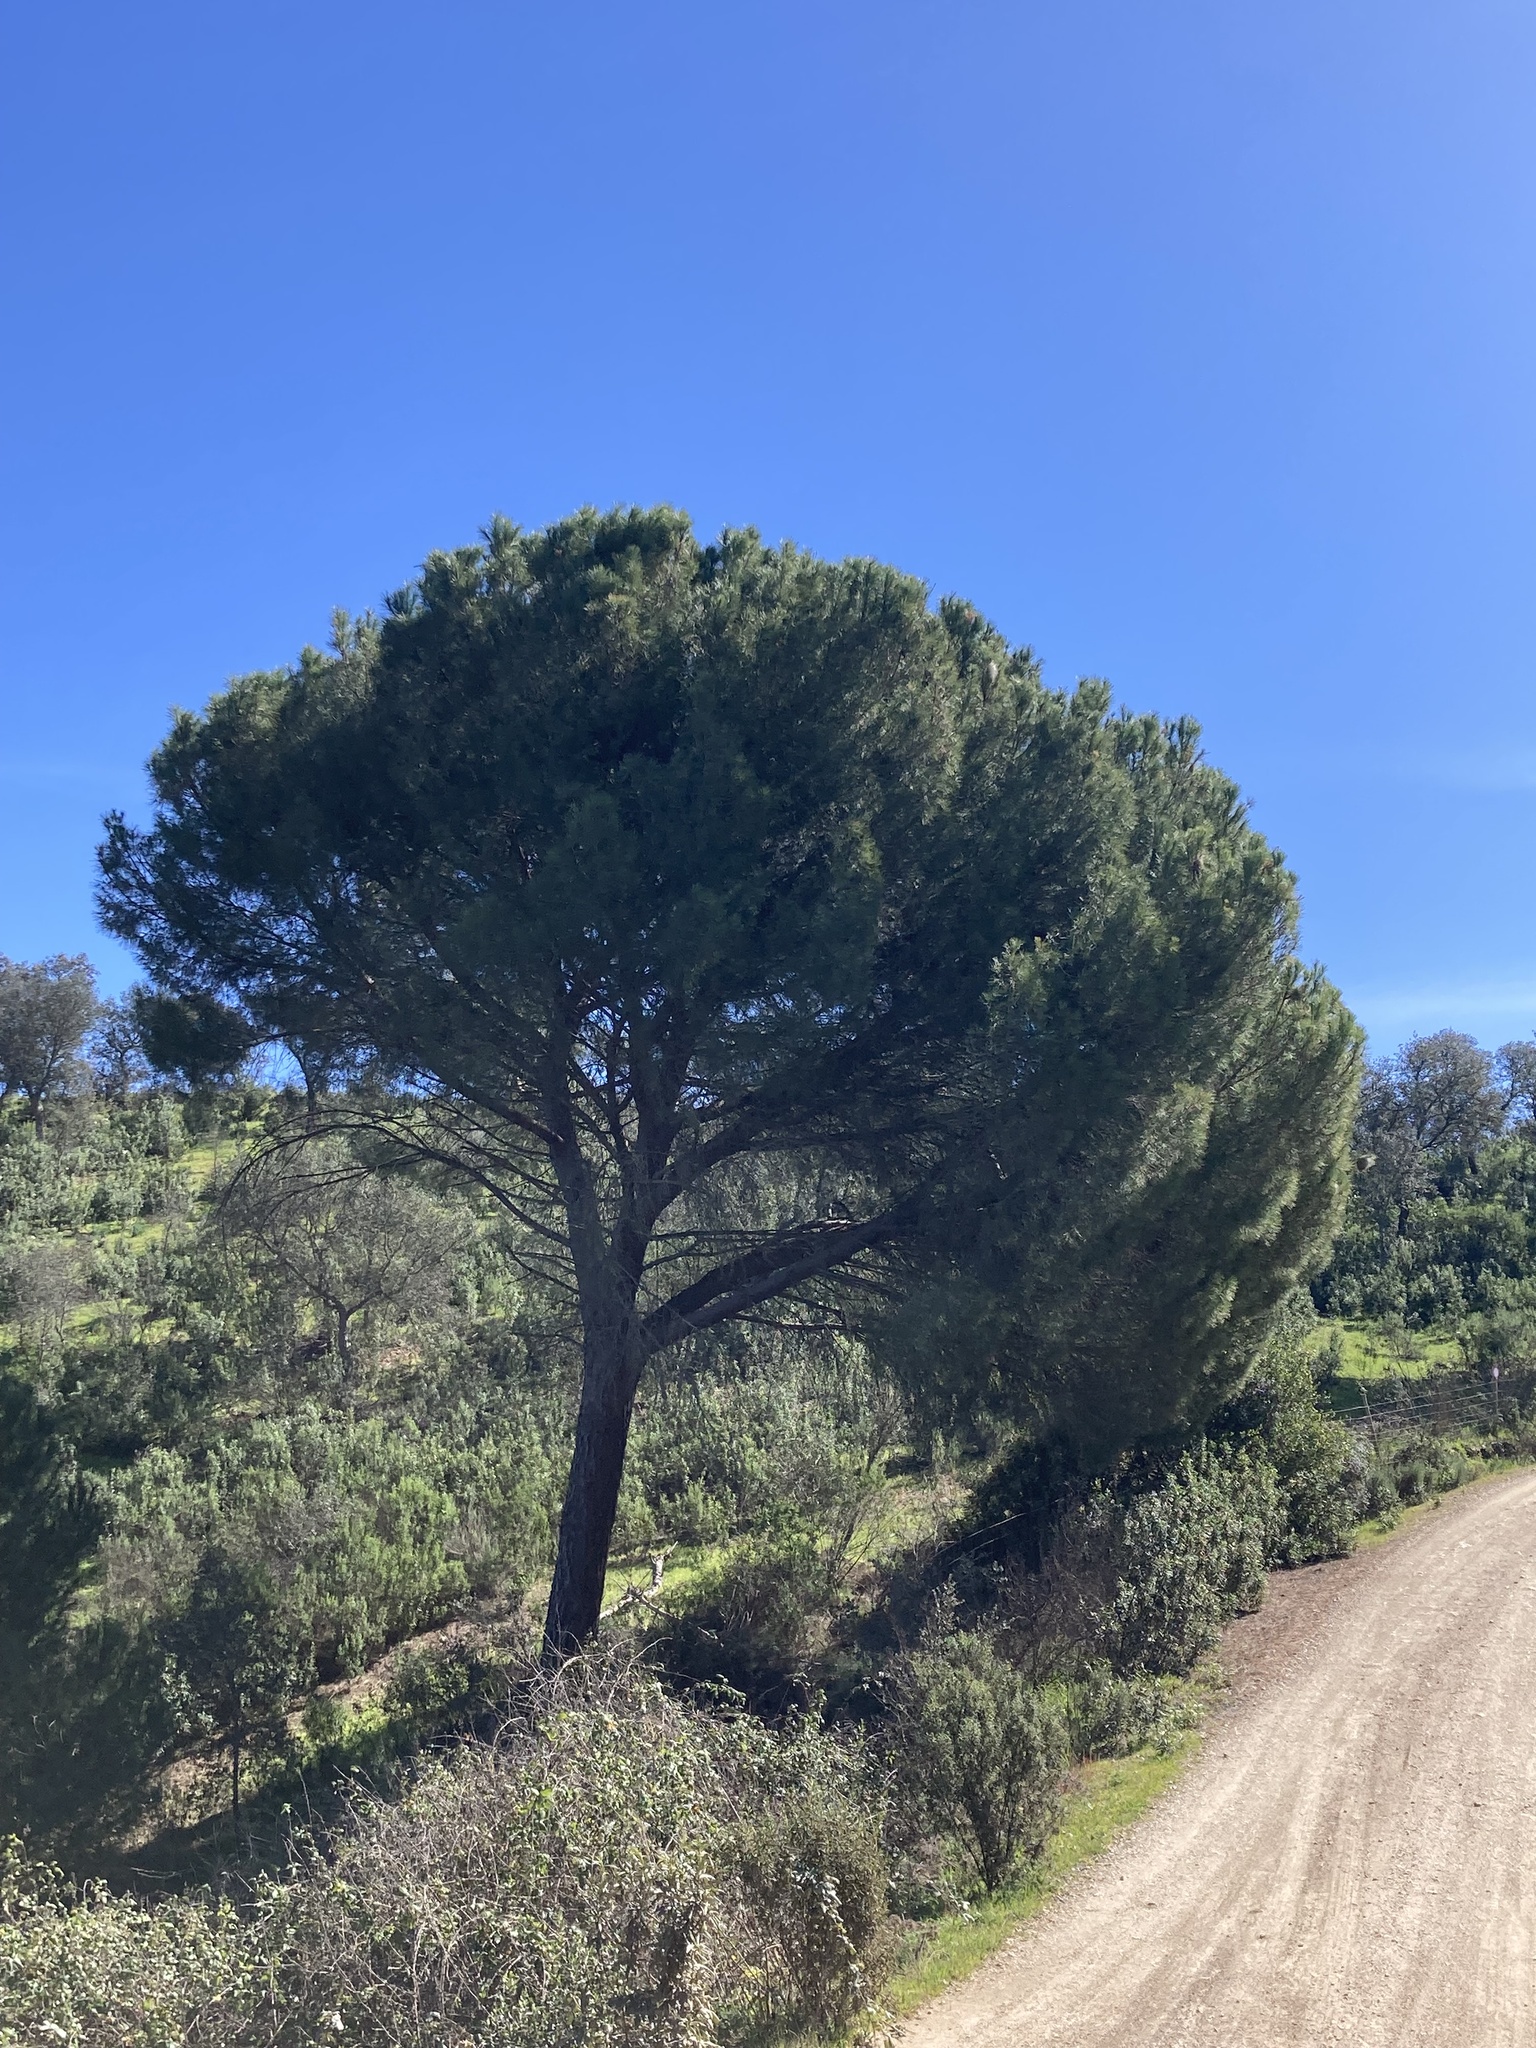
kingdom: Plantae
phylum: Tracheophyta
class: Pinopsida
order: Pinales
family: Pinaceae
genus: Pinus
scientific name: Pinus pinea
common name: Italian stone pine
